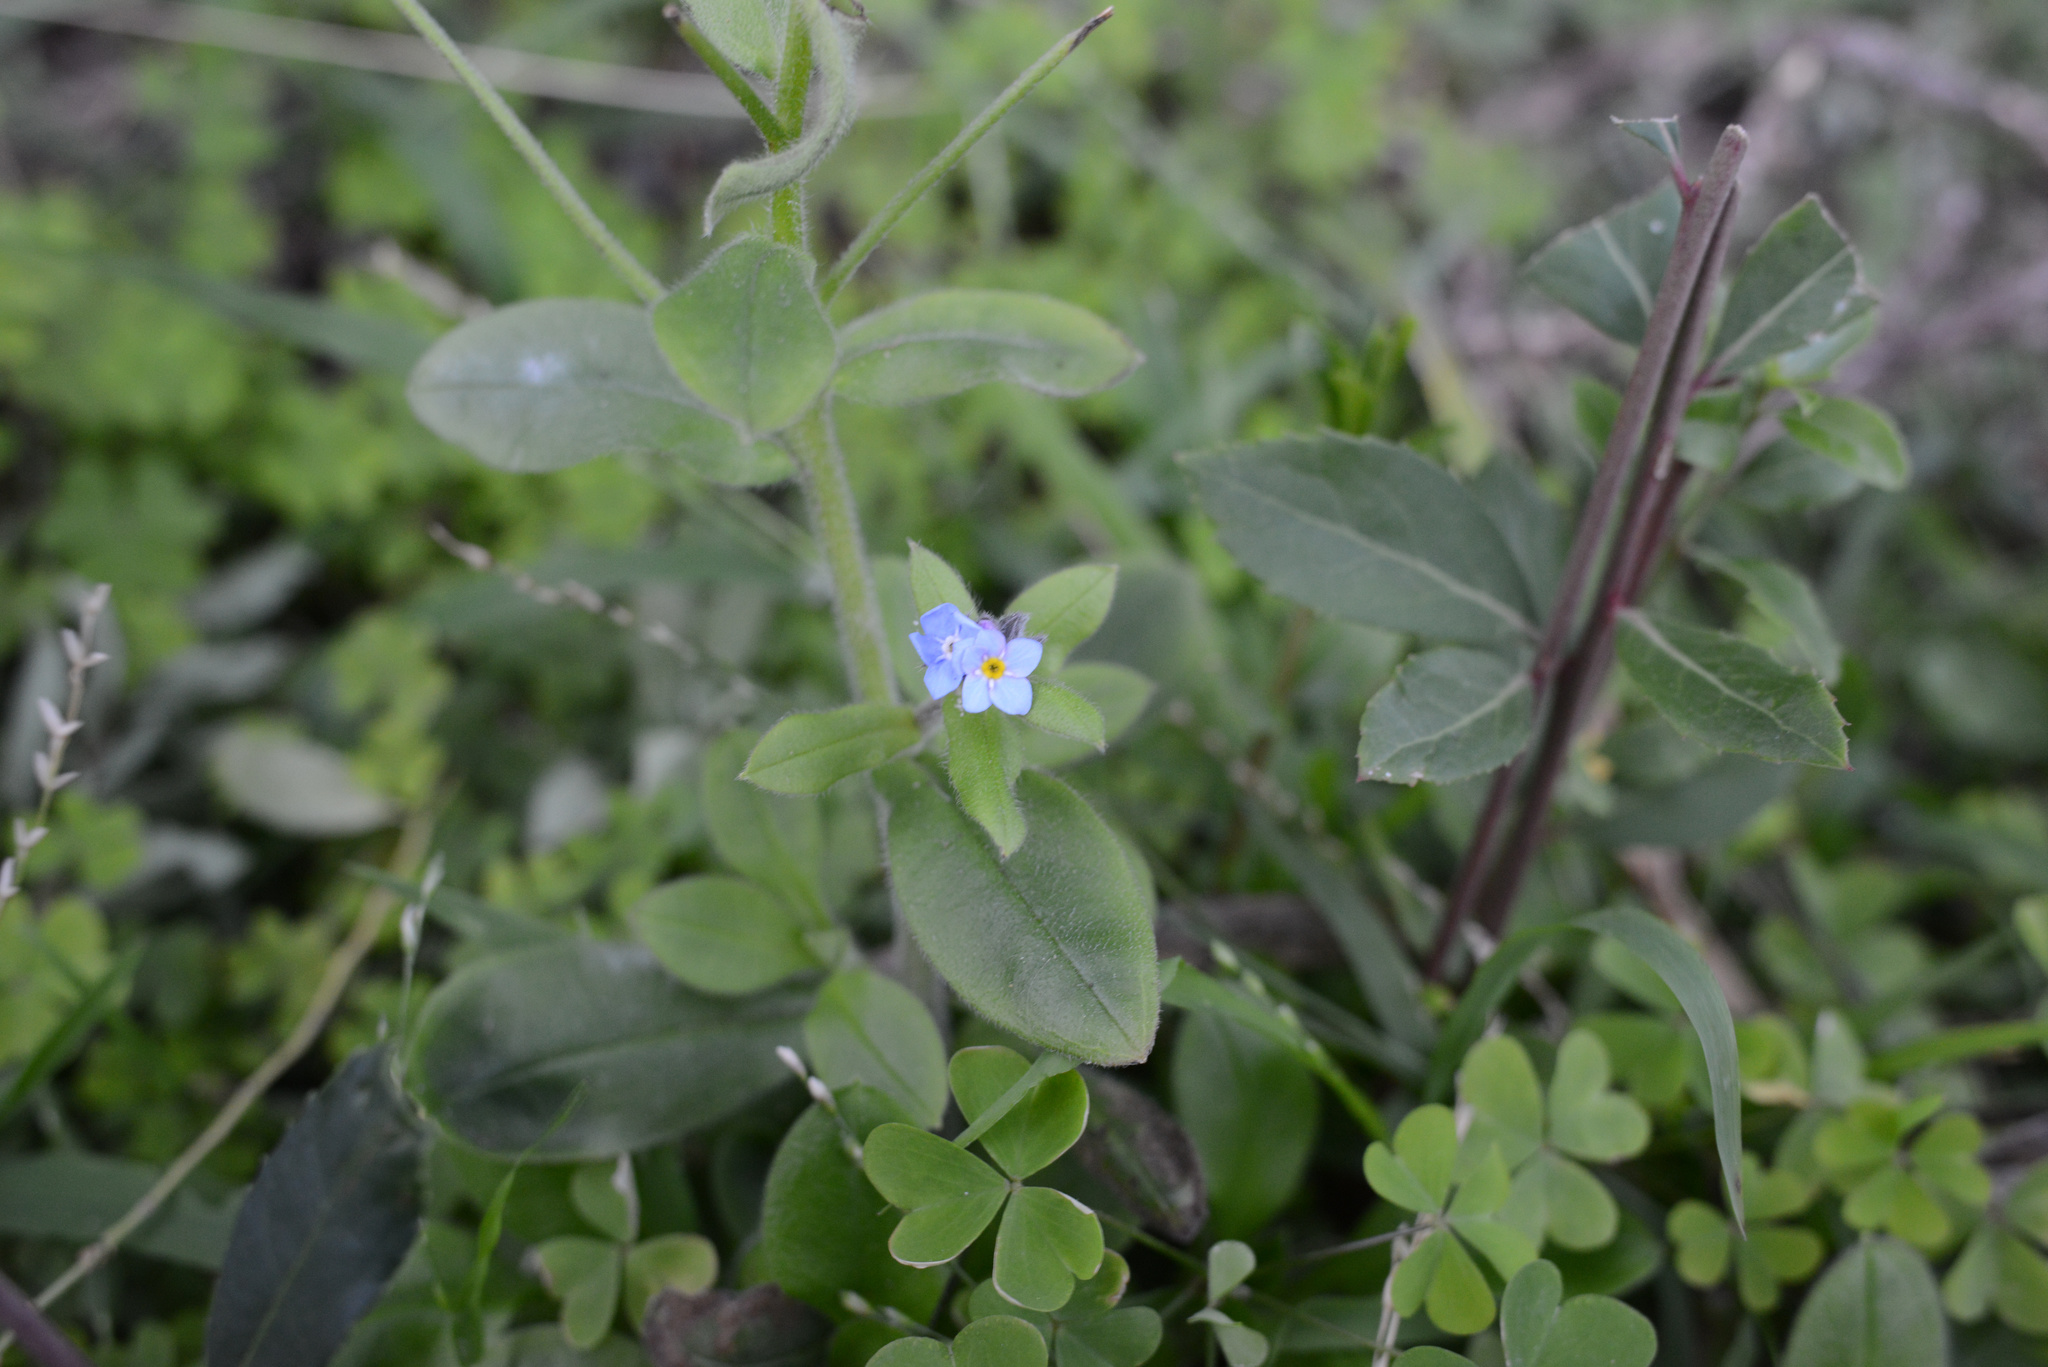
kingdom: Plantae
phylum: Tracheophyta
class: Magnoliopsida
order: Boraginales
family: Boraginaceae
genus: Myosotis
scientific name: Myosotis sylvatica
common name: Wood forget-me-not
